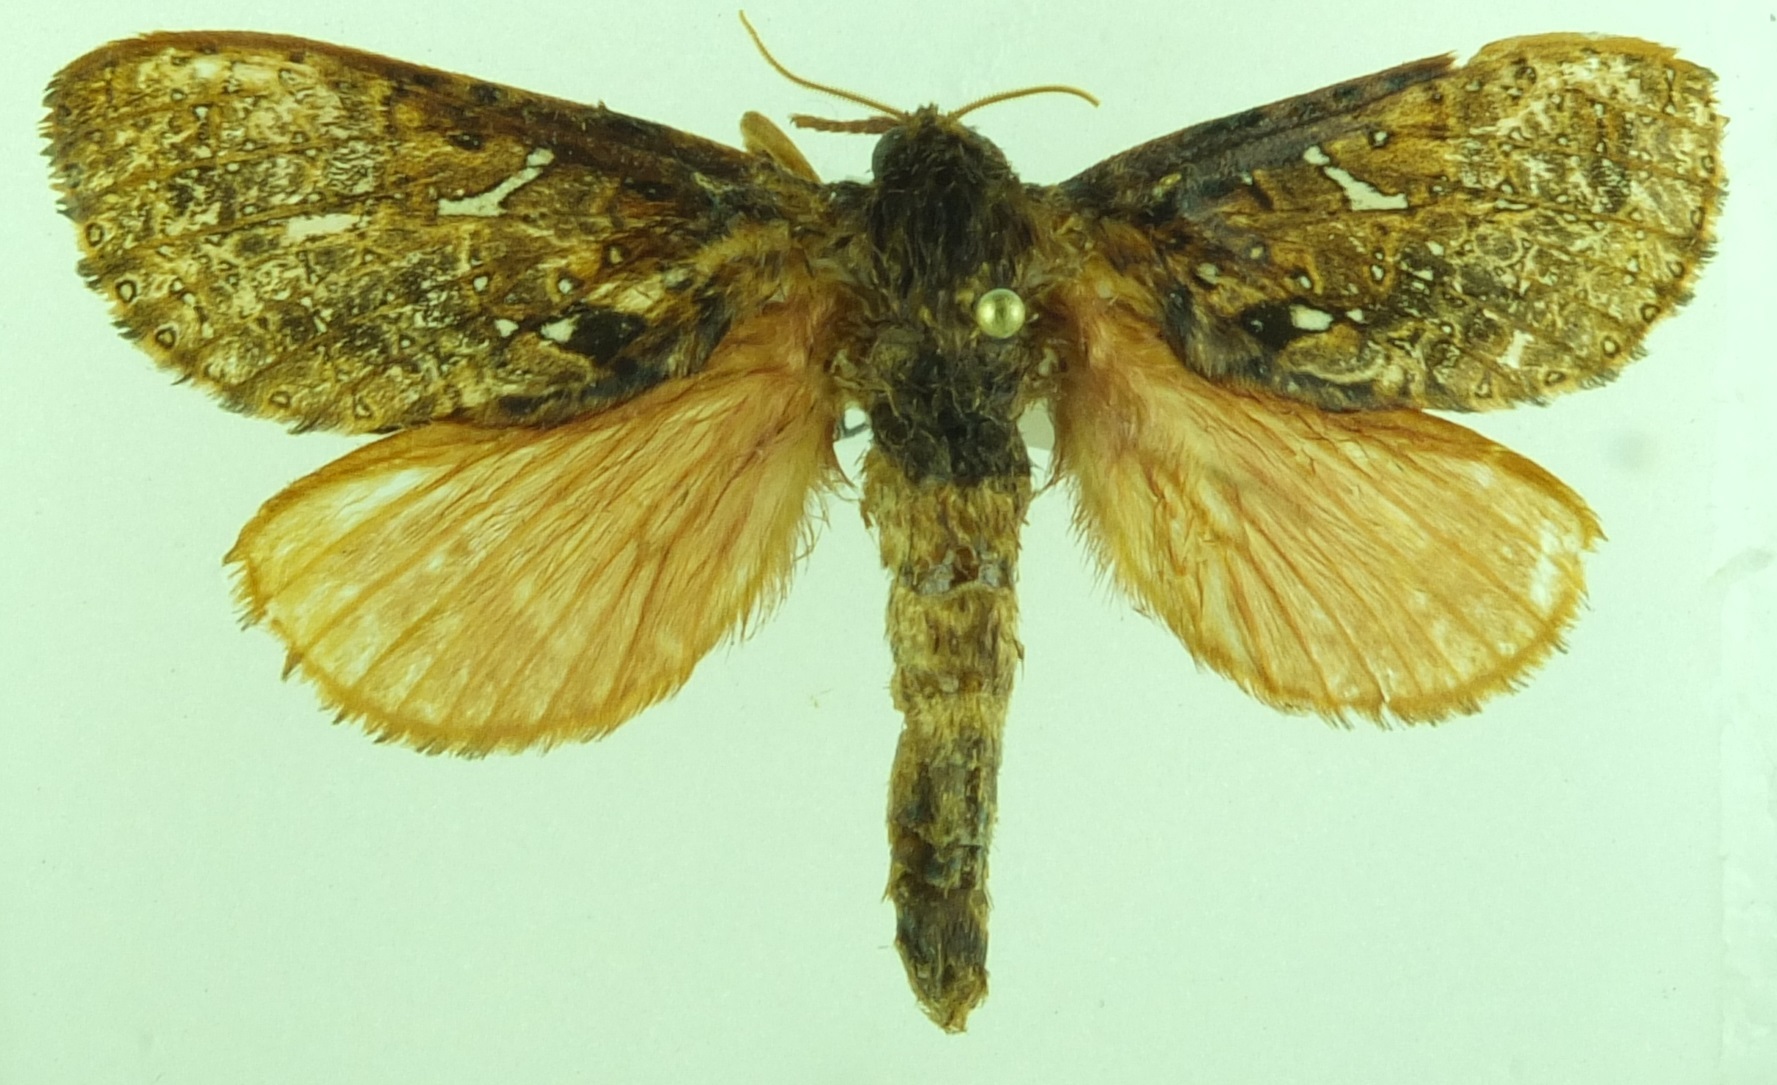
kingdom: Animalia
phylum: Arthropoda
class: Insecta
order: Lepidoptera
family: Hepialidae
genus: Dumbletonius
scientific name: Dumbletonius unimaculata
